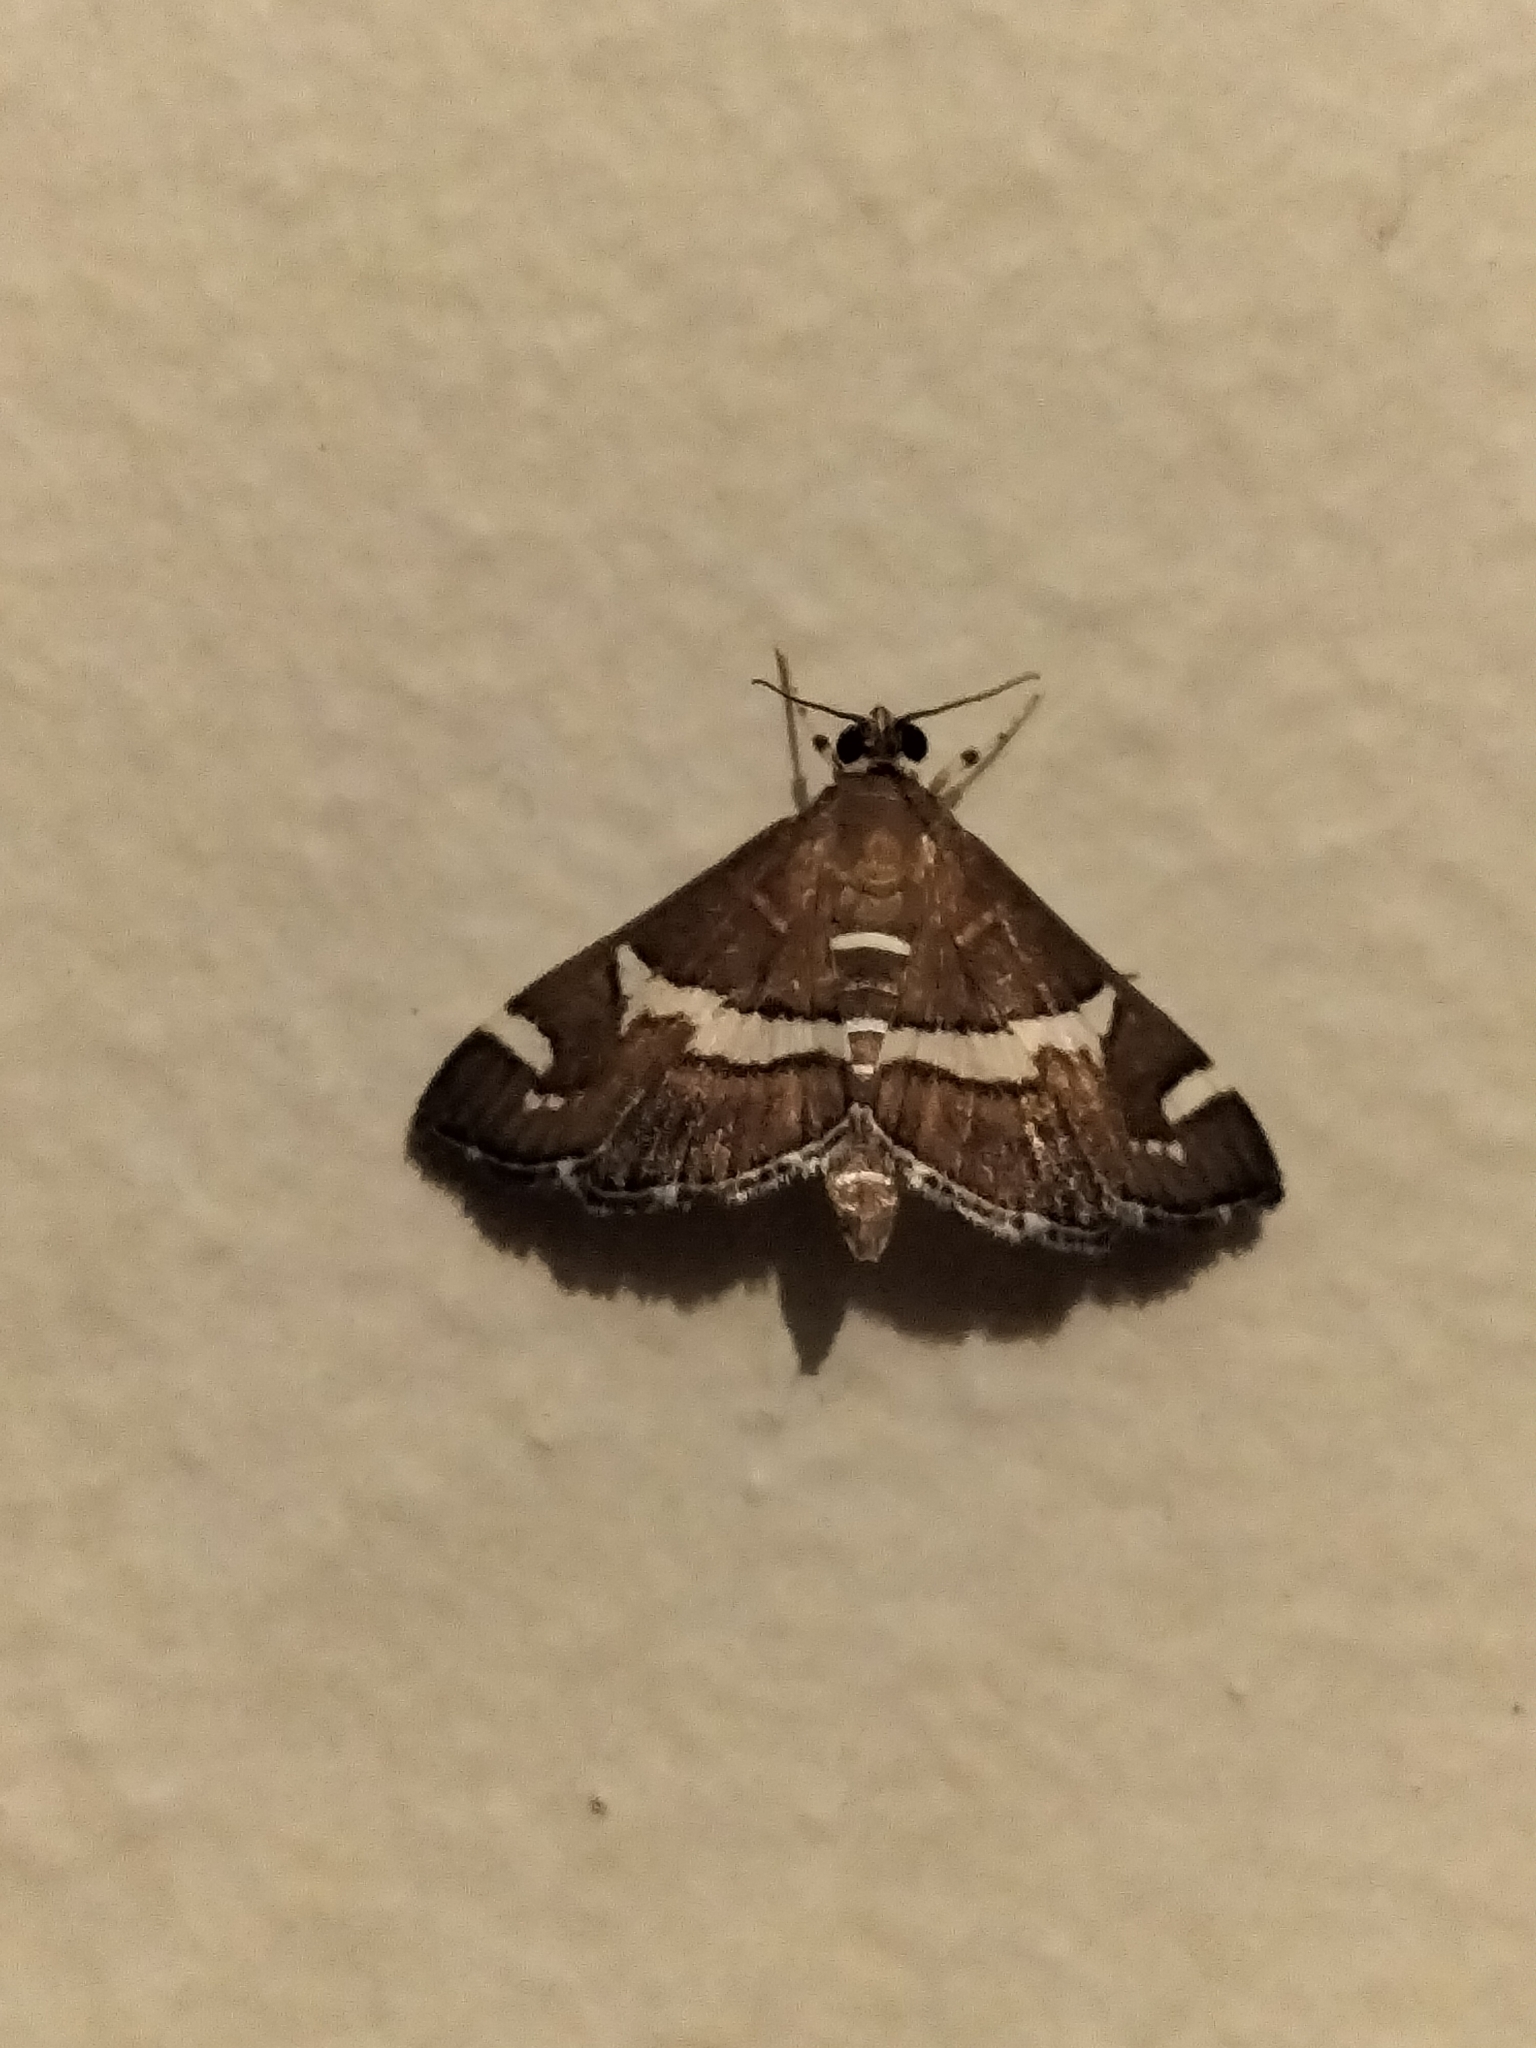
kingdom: Animalia
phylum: Arthropoda
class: Insecta
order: Lepidoptera
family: Crambidae
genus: Spoladea
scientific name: Spoladea recurvalis
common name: Beet webworm moth
